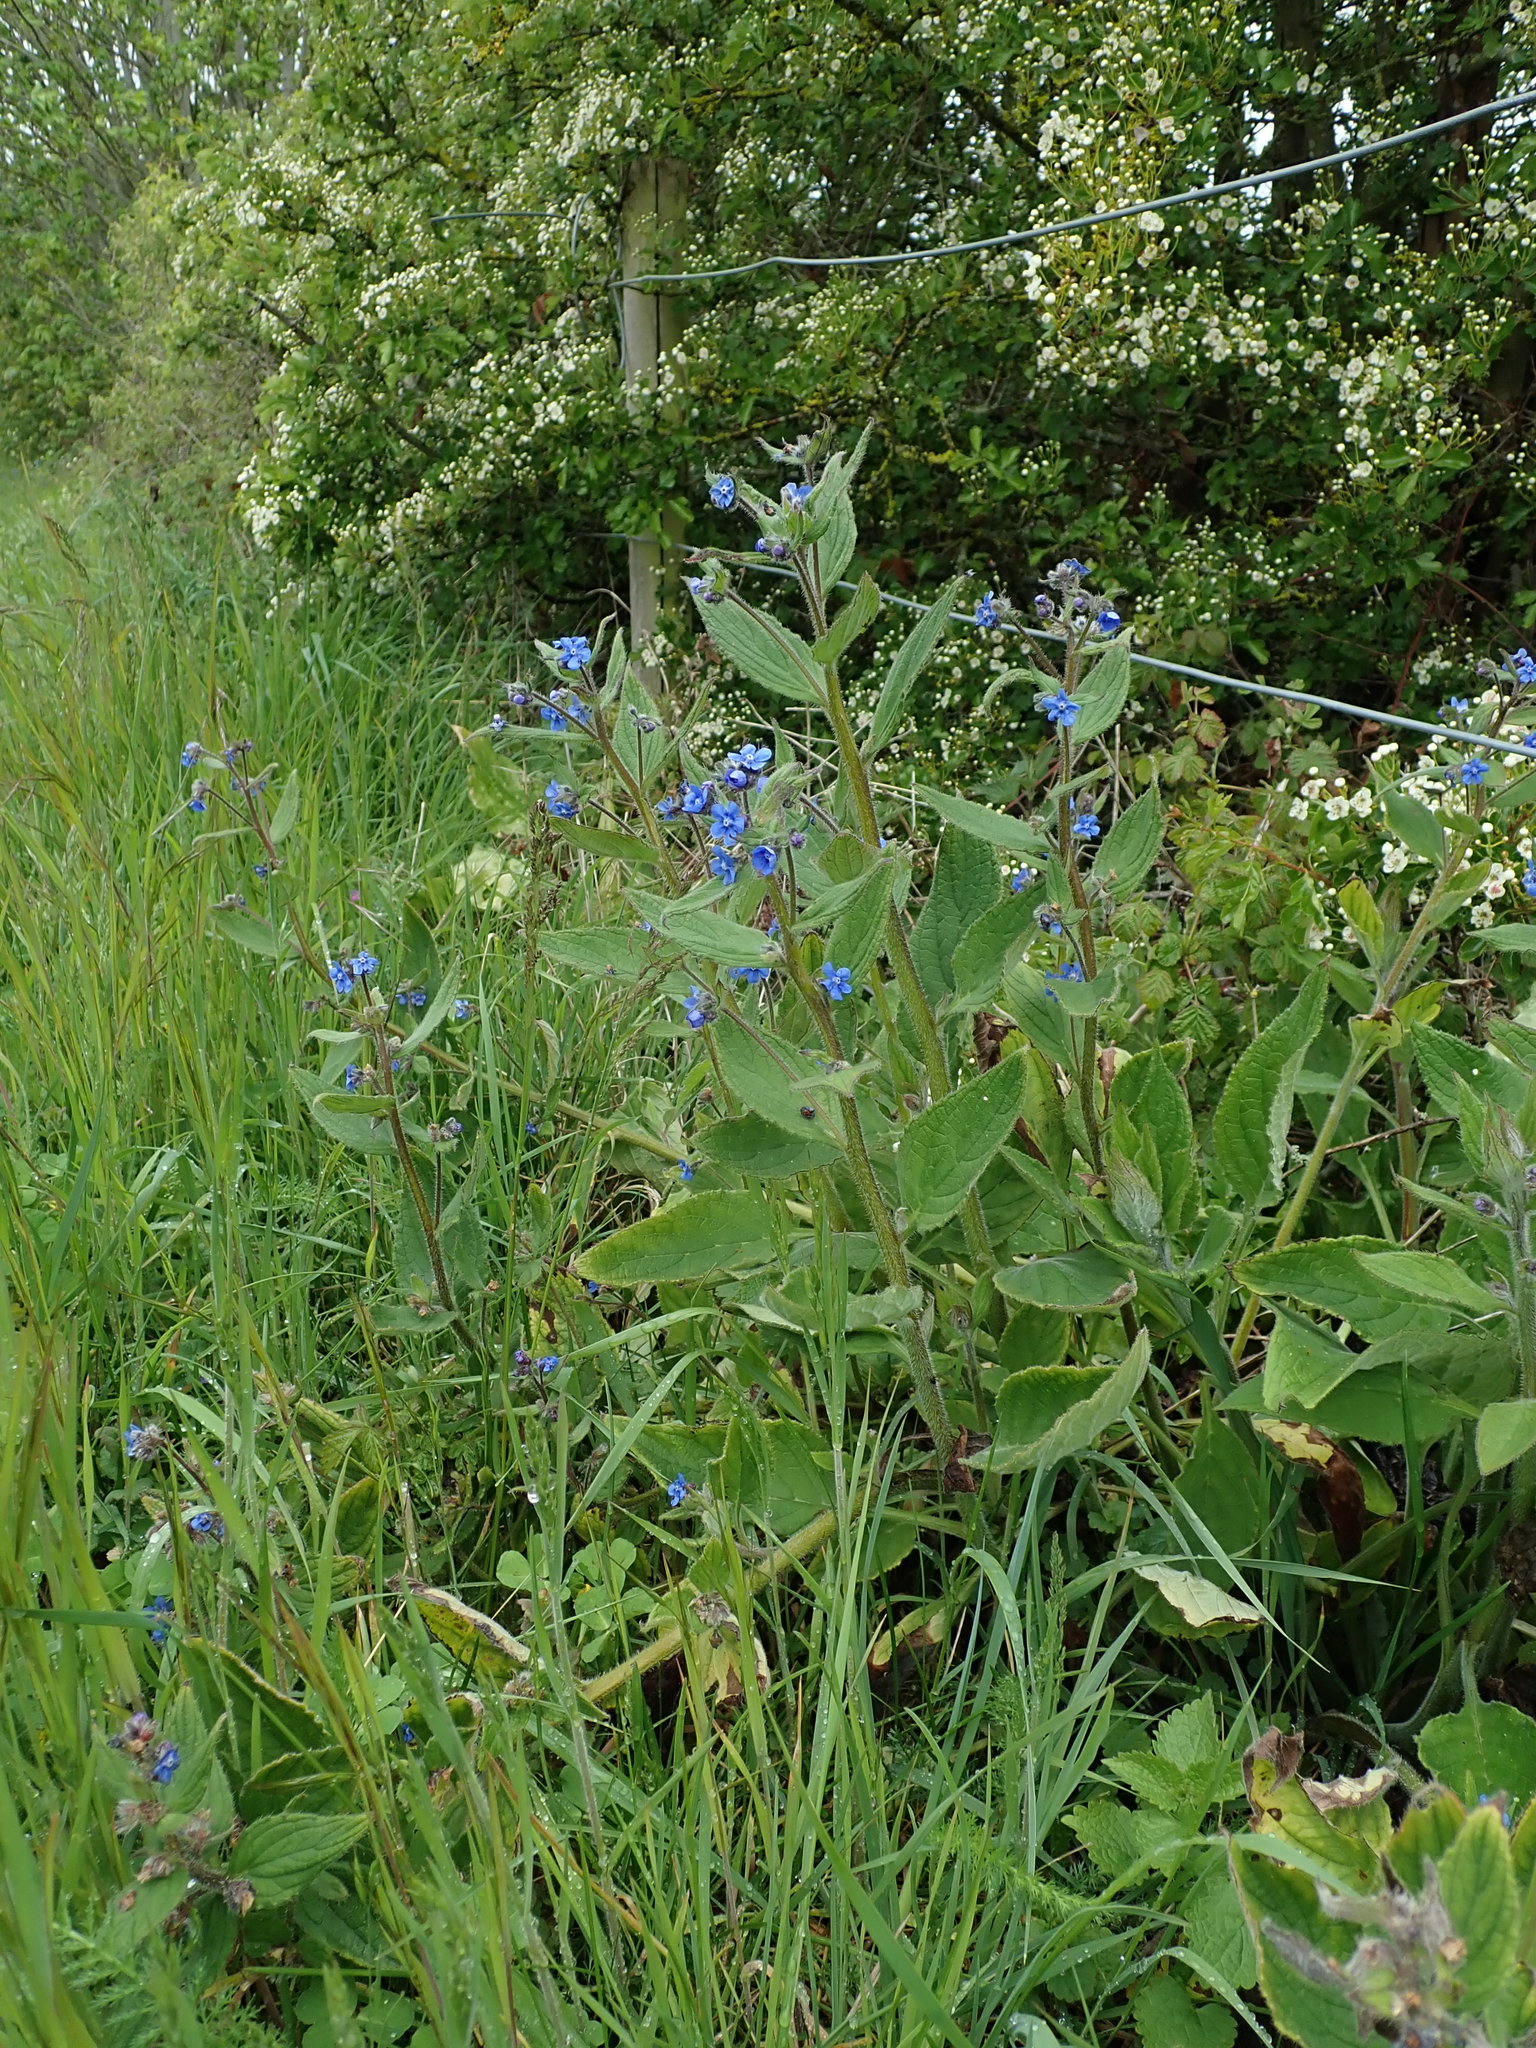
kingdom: Plantae
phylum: Tracheophyta
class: Magnoliopsida
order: Boraginales
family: Boraginaceae
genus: Pentaglottis
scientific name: Pentaglottis sempervirens
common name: Green alkanet
